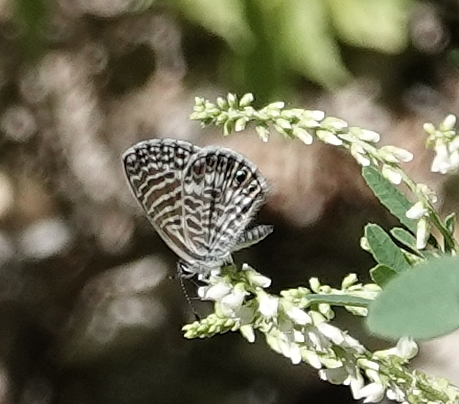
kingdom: Animalia
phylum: Arthropoda
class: Insecta
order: Lepidoptera
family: Lycaenidae
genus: Leptotes
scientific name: Leptotes marina
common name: Marine blue
